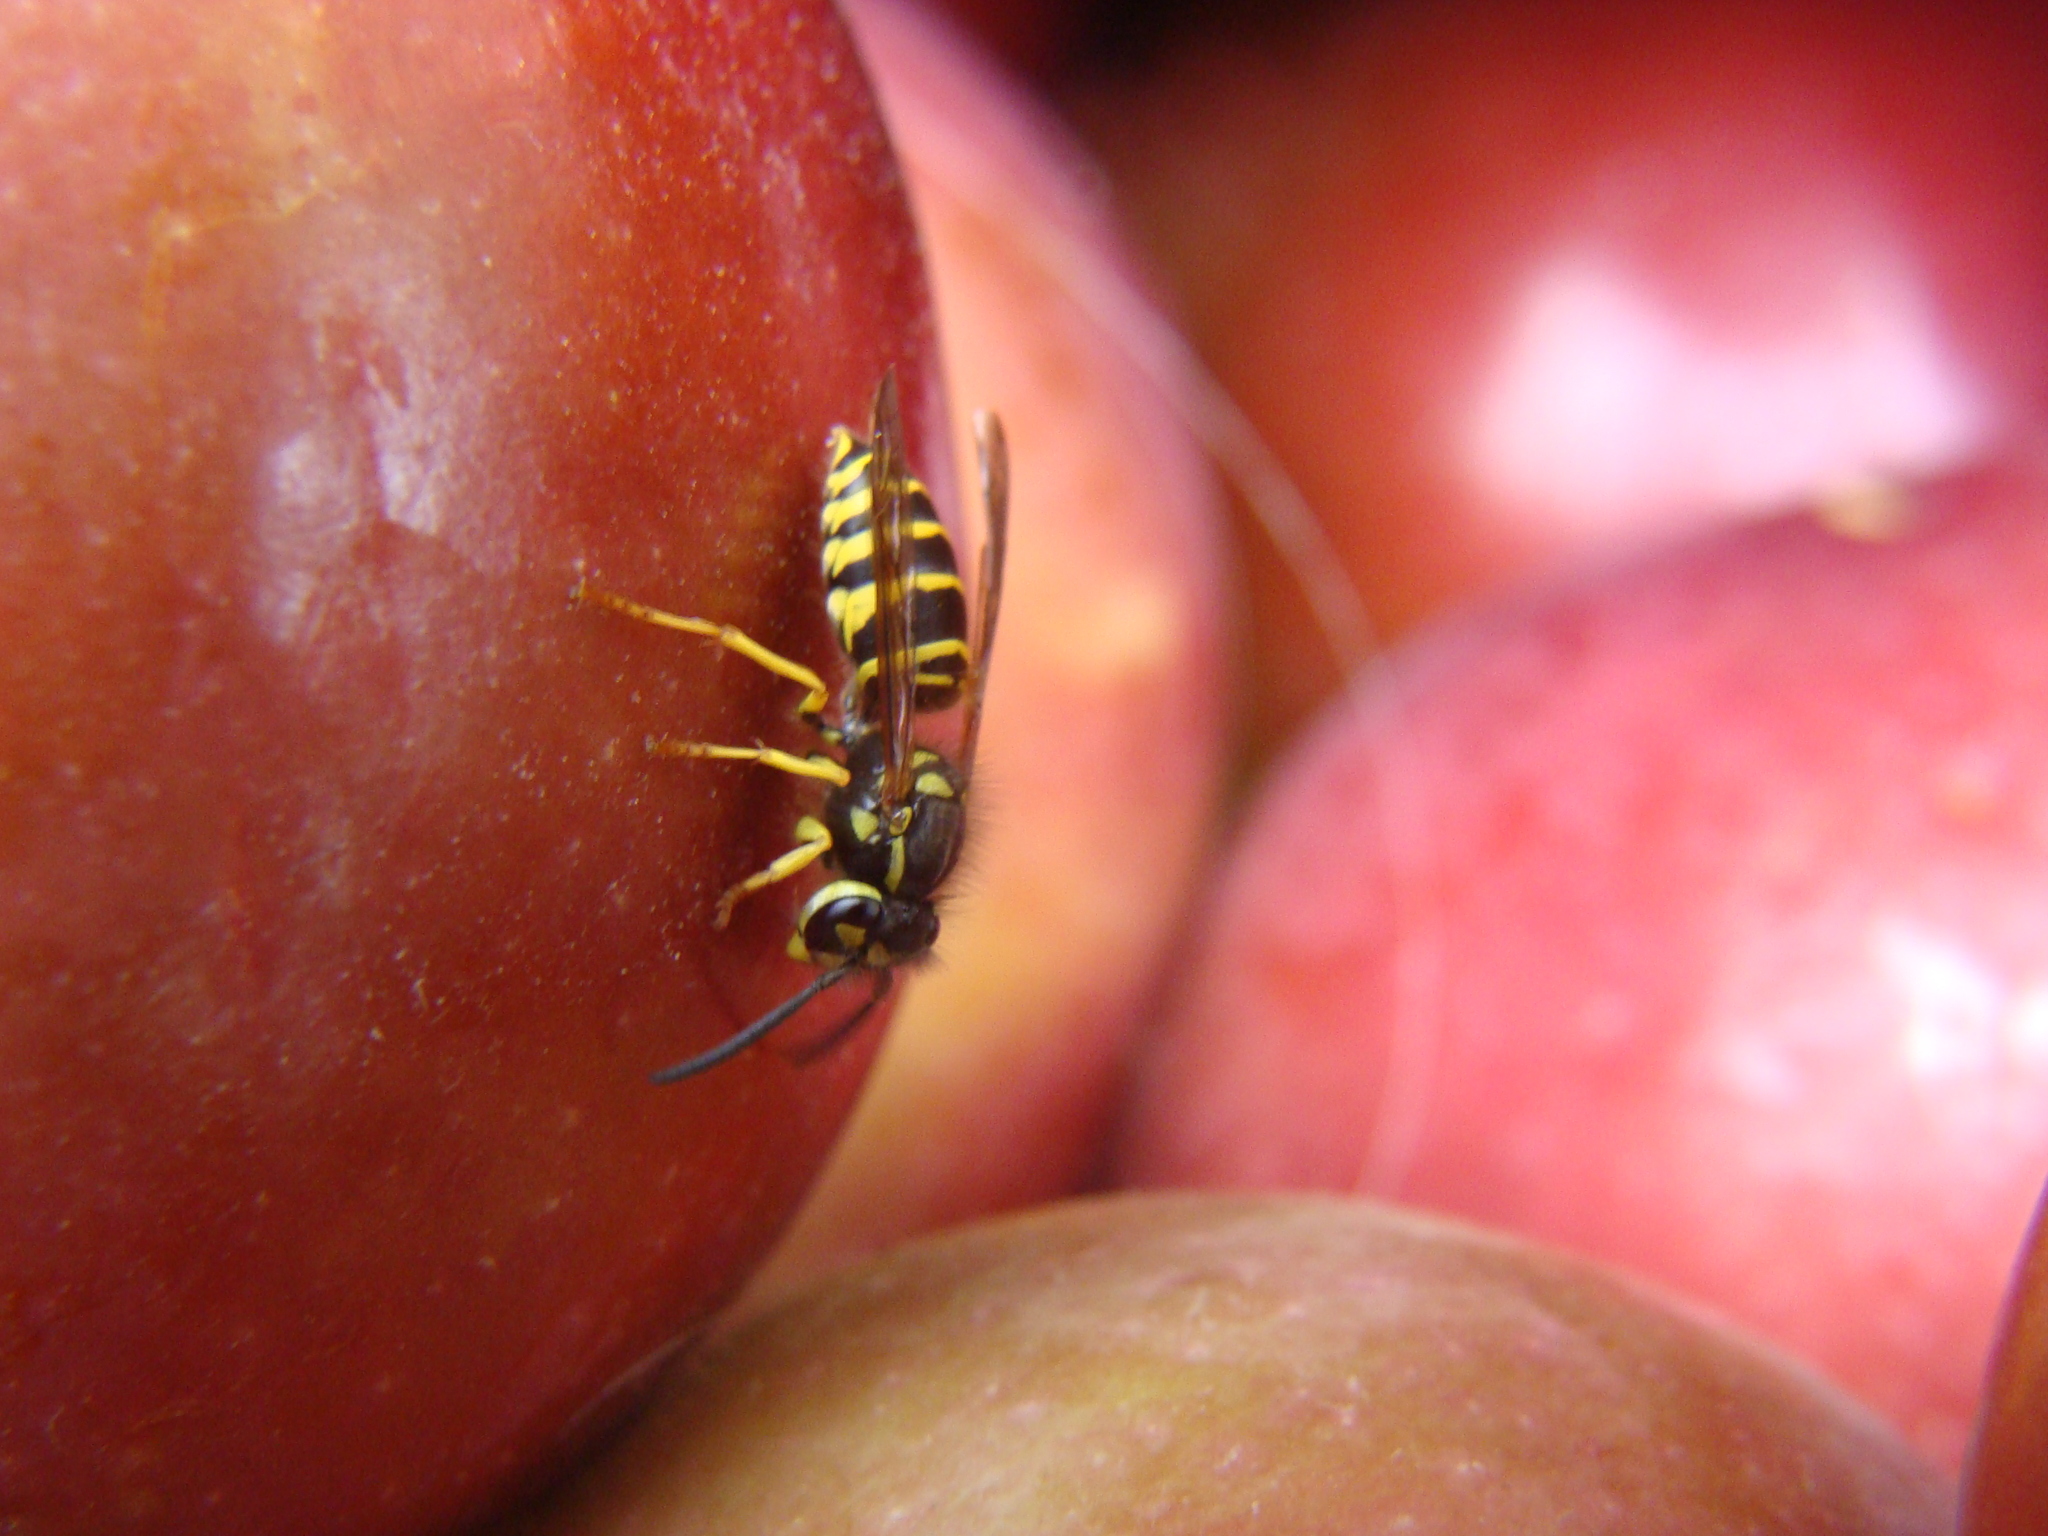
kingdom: Animalia
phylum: Arthropoda
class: Insecta
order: Hymenoptera
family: Vespidae
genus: Vespula
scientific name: Vespula maculifrons
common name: Eastern yellowjacket
